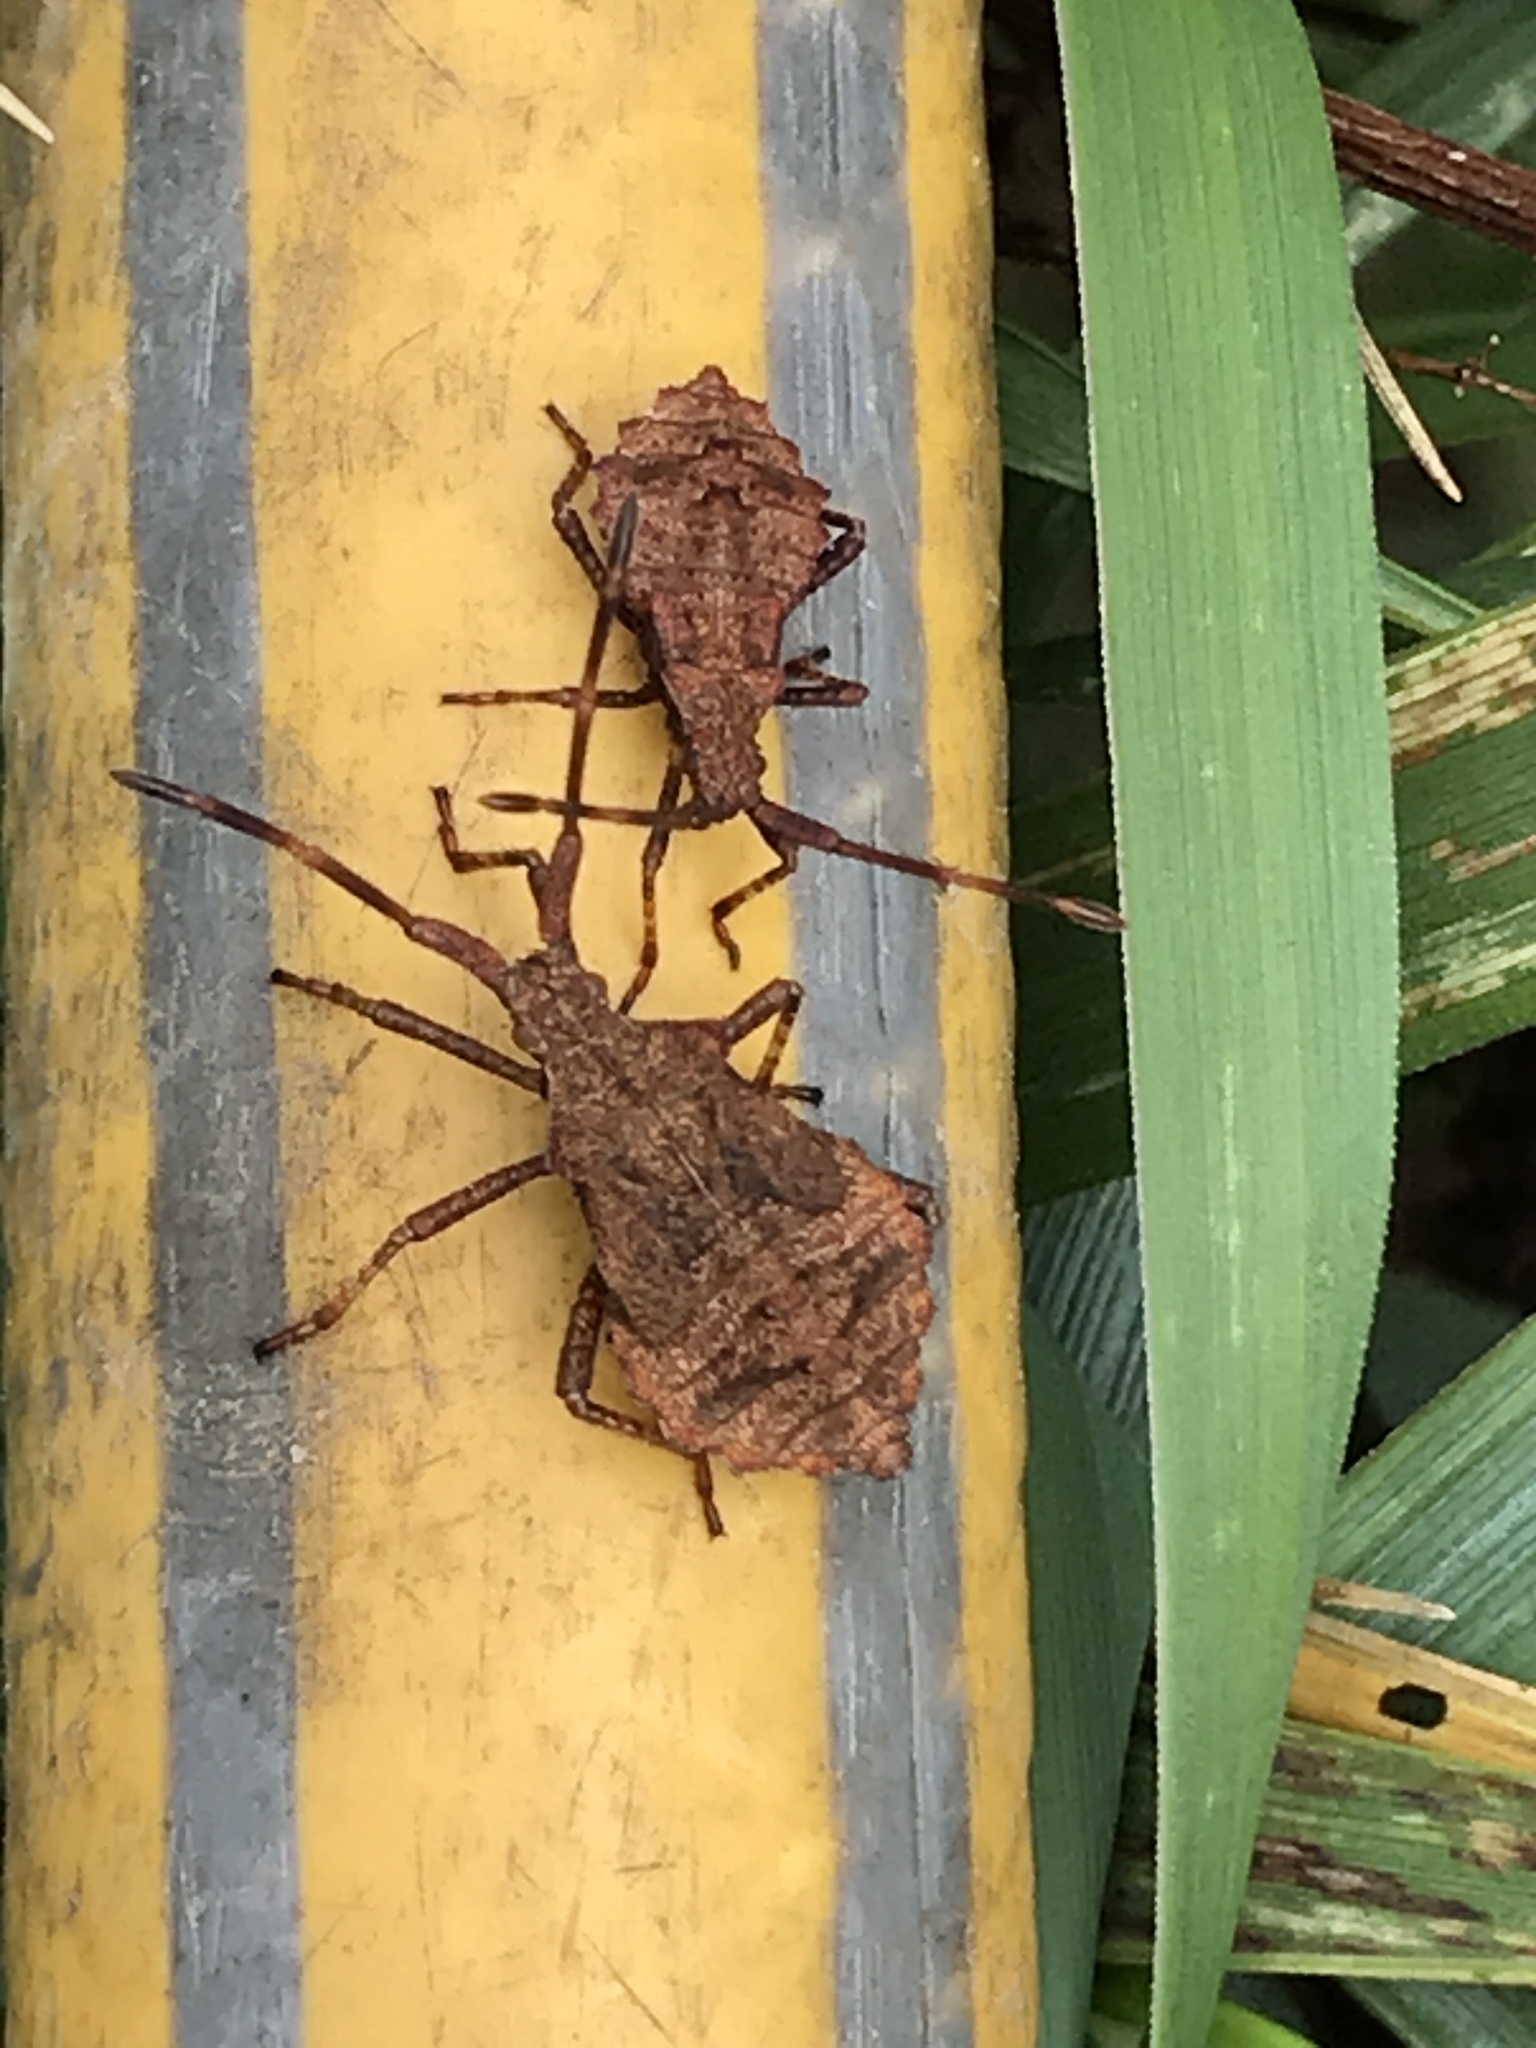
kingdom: Animalia
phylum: Arthropoda
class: Insecta
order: Hemiptera
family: Coreidae
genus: Coreus
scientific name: Coreus marginatus
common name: Dock bug
